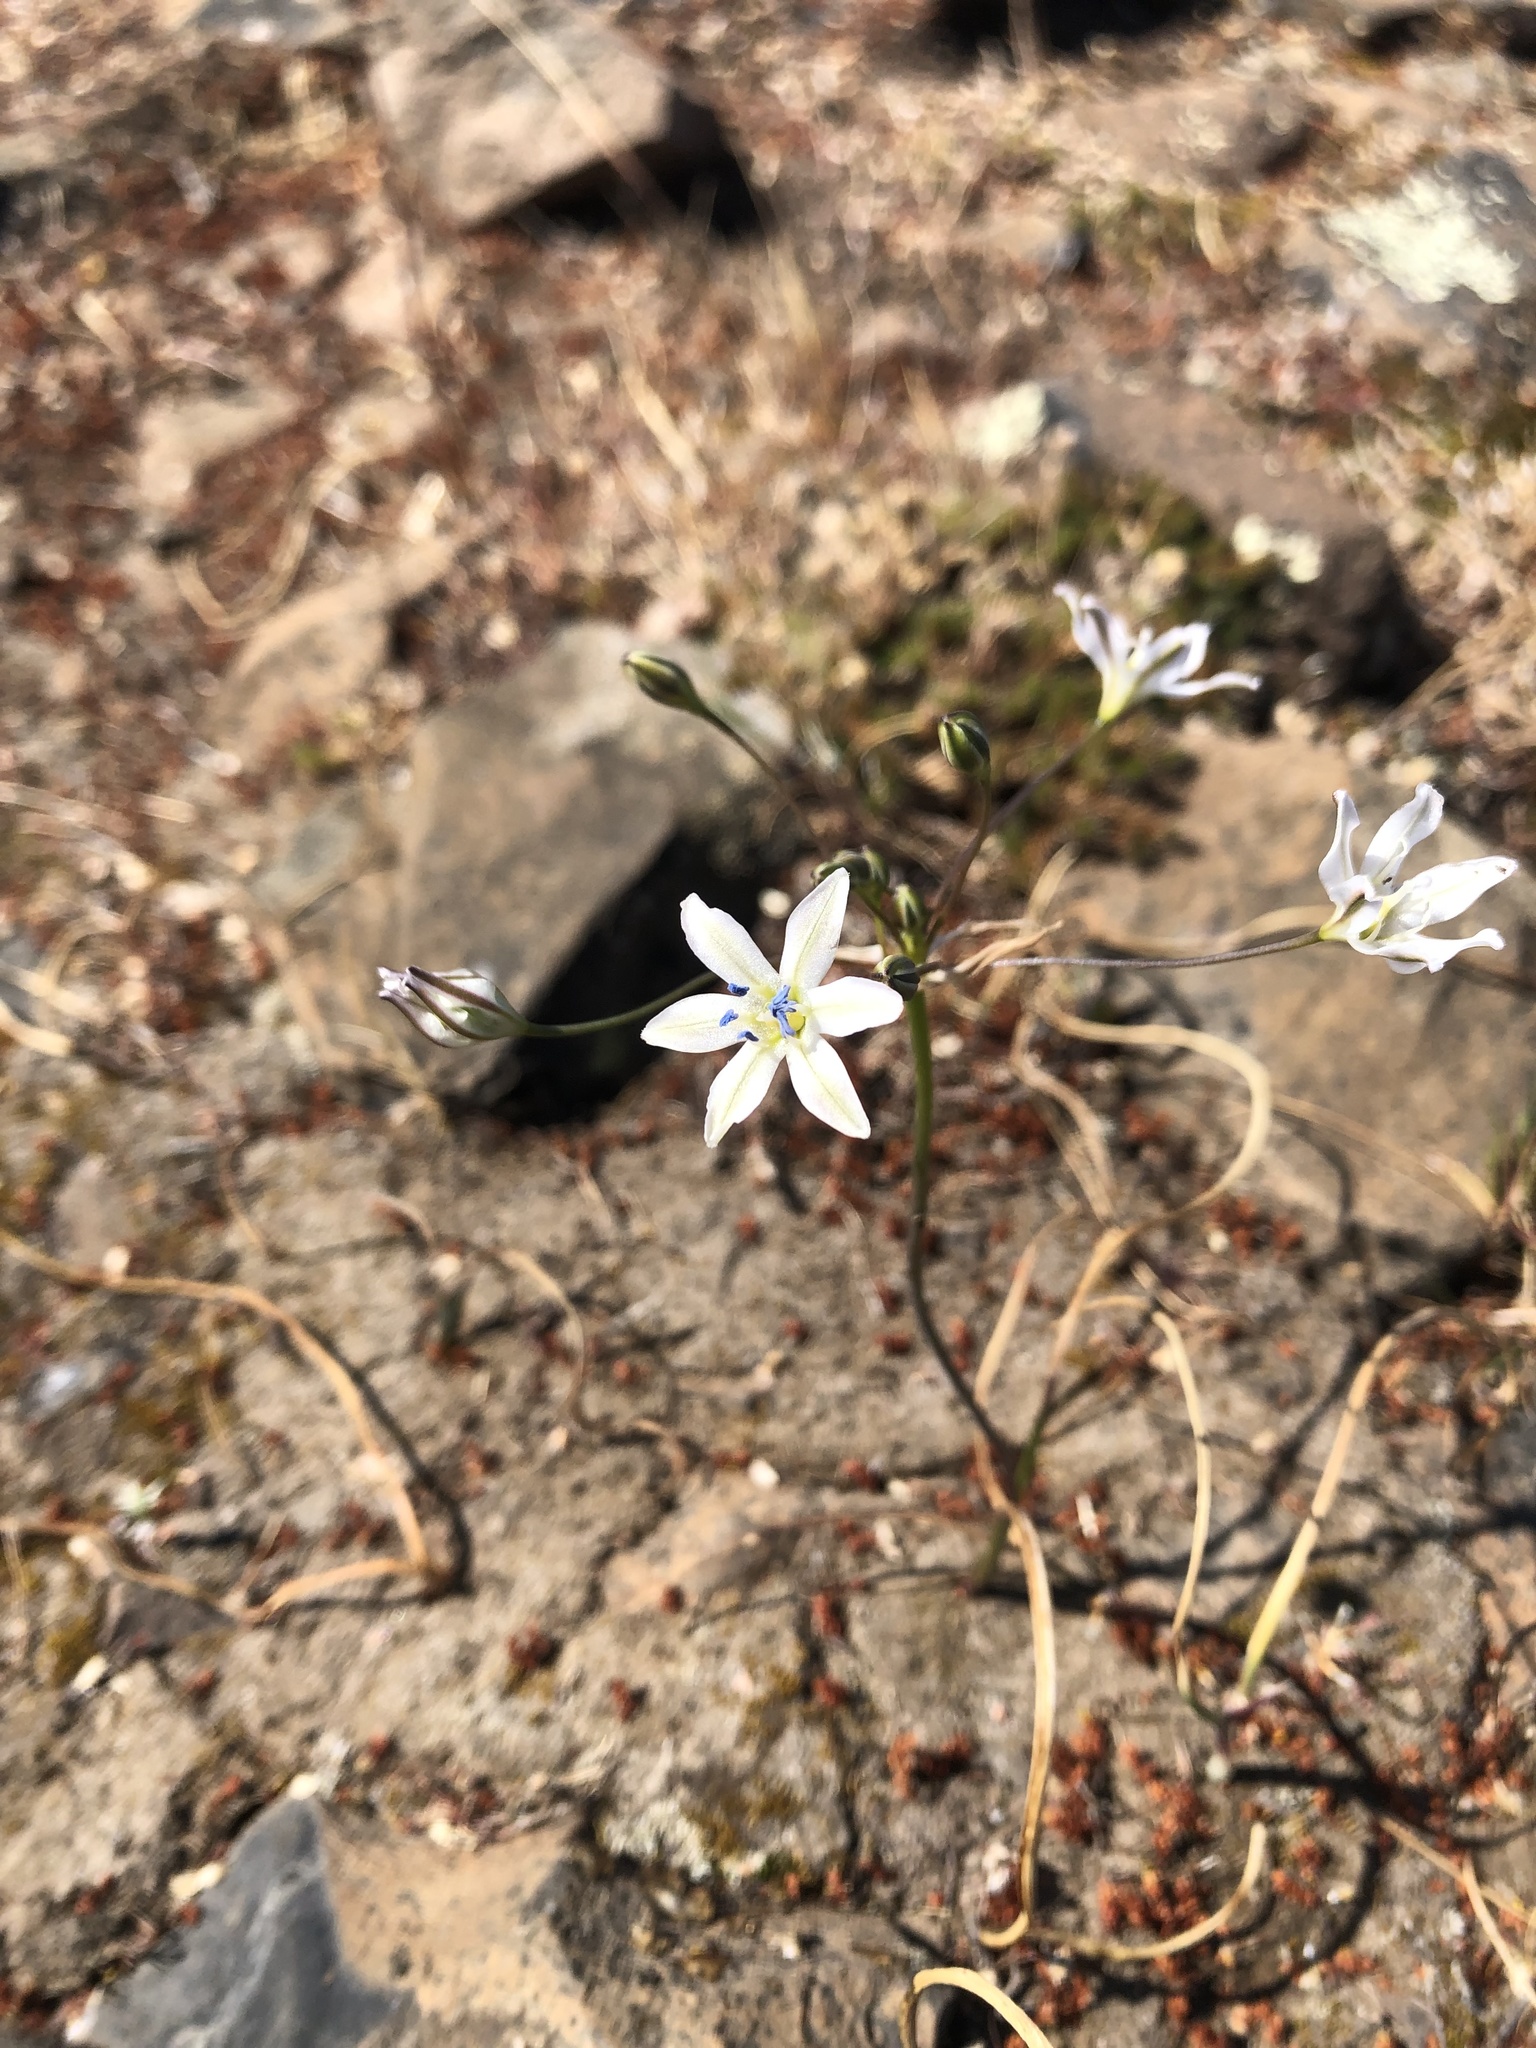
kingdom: Plantae
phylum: Tracheophyta
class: Liliopsida
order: Asparagales
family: Asparagaceae
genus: Triteleia
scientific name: Triteleia lilacina
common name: Lilac-flower wild hyacinth
